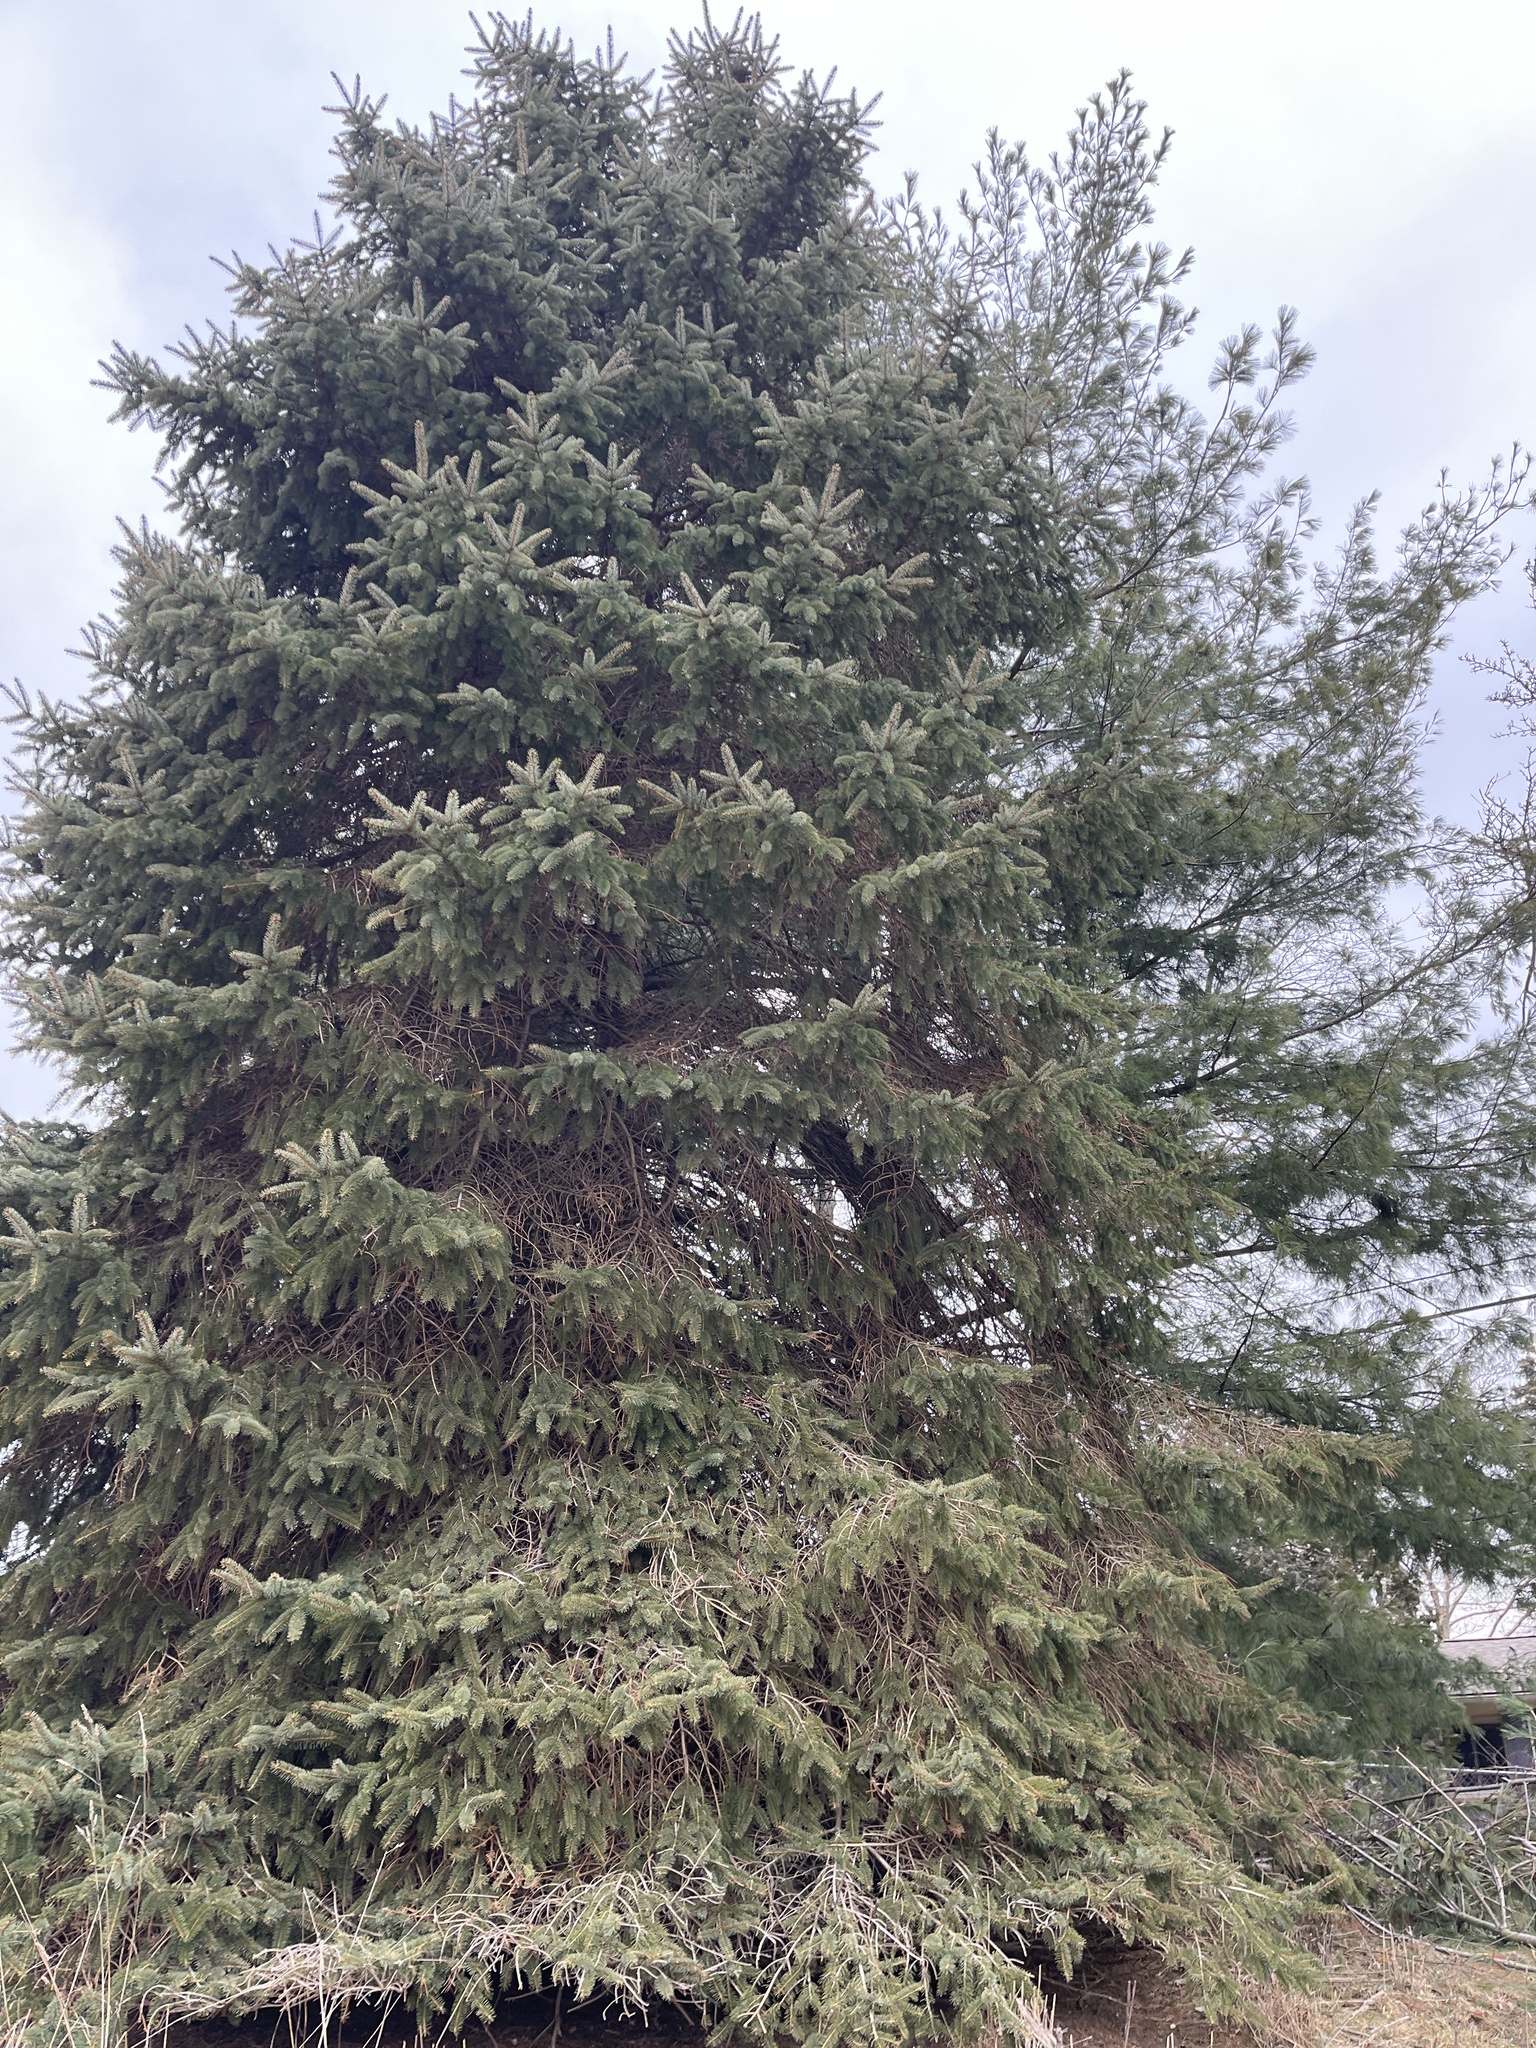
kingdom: Plantae
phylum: Tracheophyta
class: Pinopsida
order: Pinales
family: Pinaceae
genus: Picea
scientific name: Picea pungens
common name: Colorado spruce
